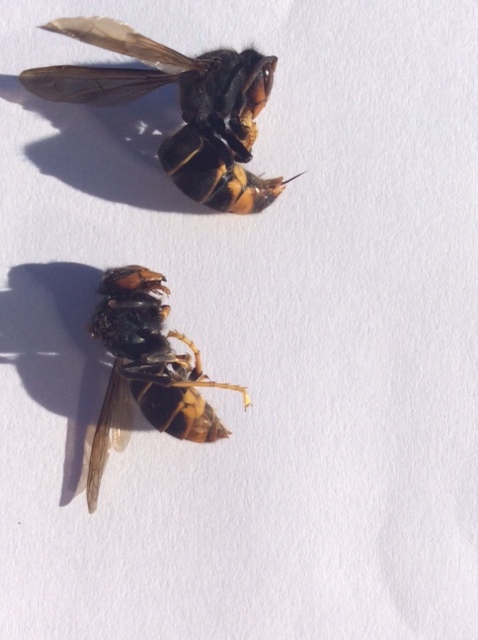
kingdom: Animalia
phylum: Arthropoda
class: Insecta
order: Hymenoptera
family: Vespidae
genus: Vespa
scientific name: Vespa velutina
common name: Asian hornet
